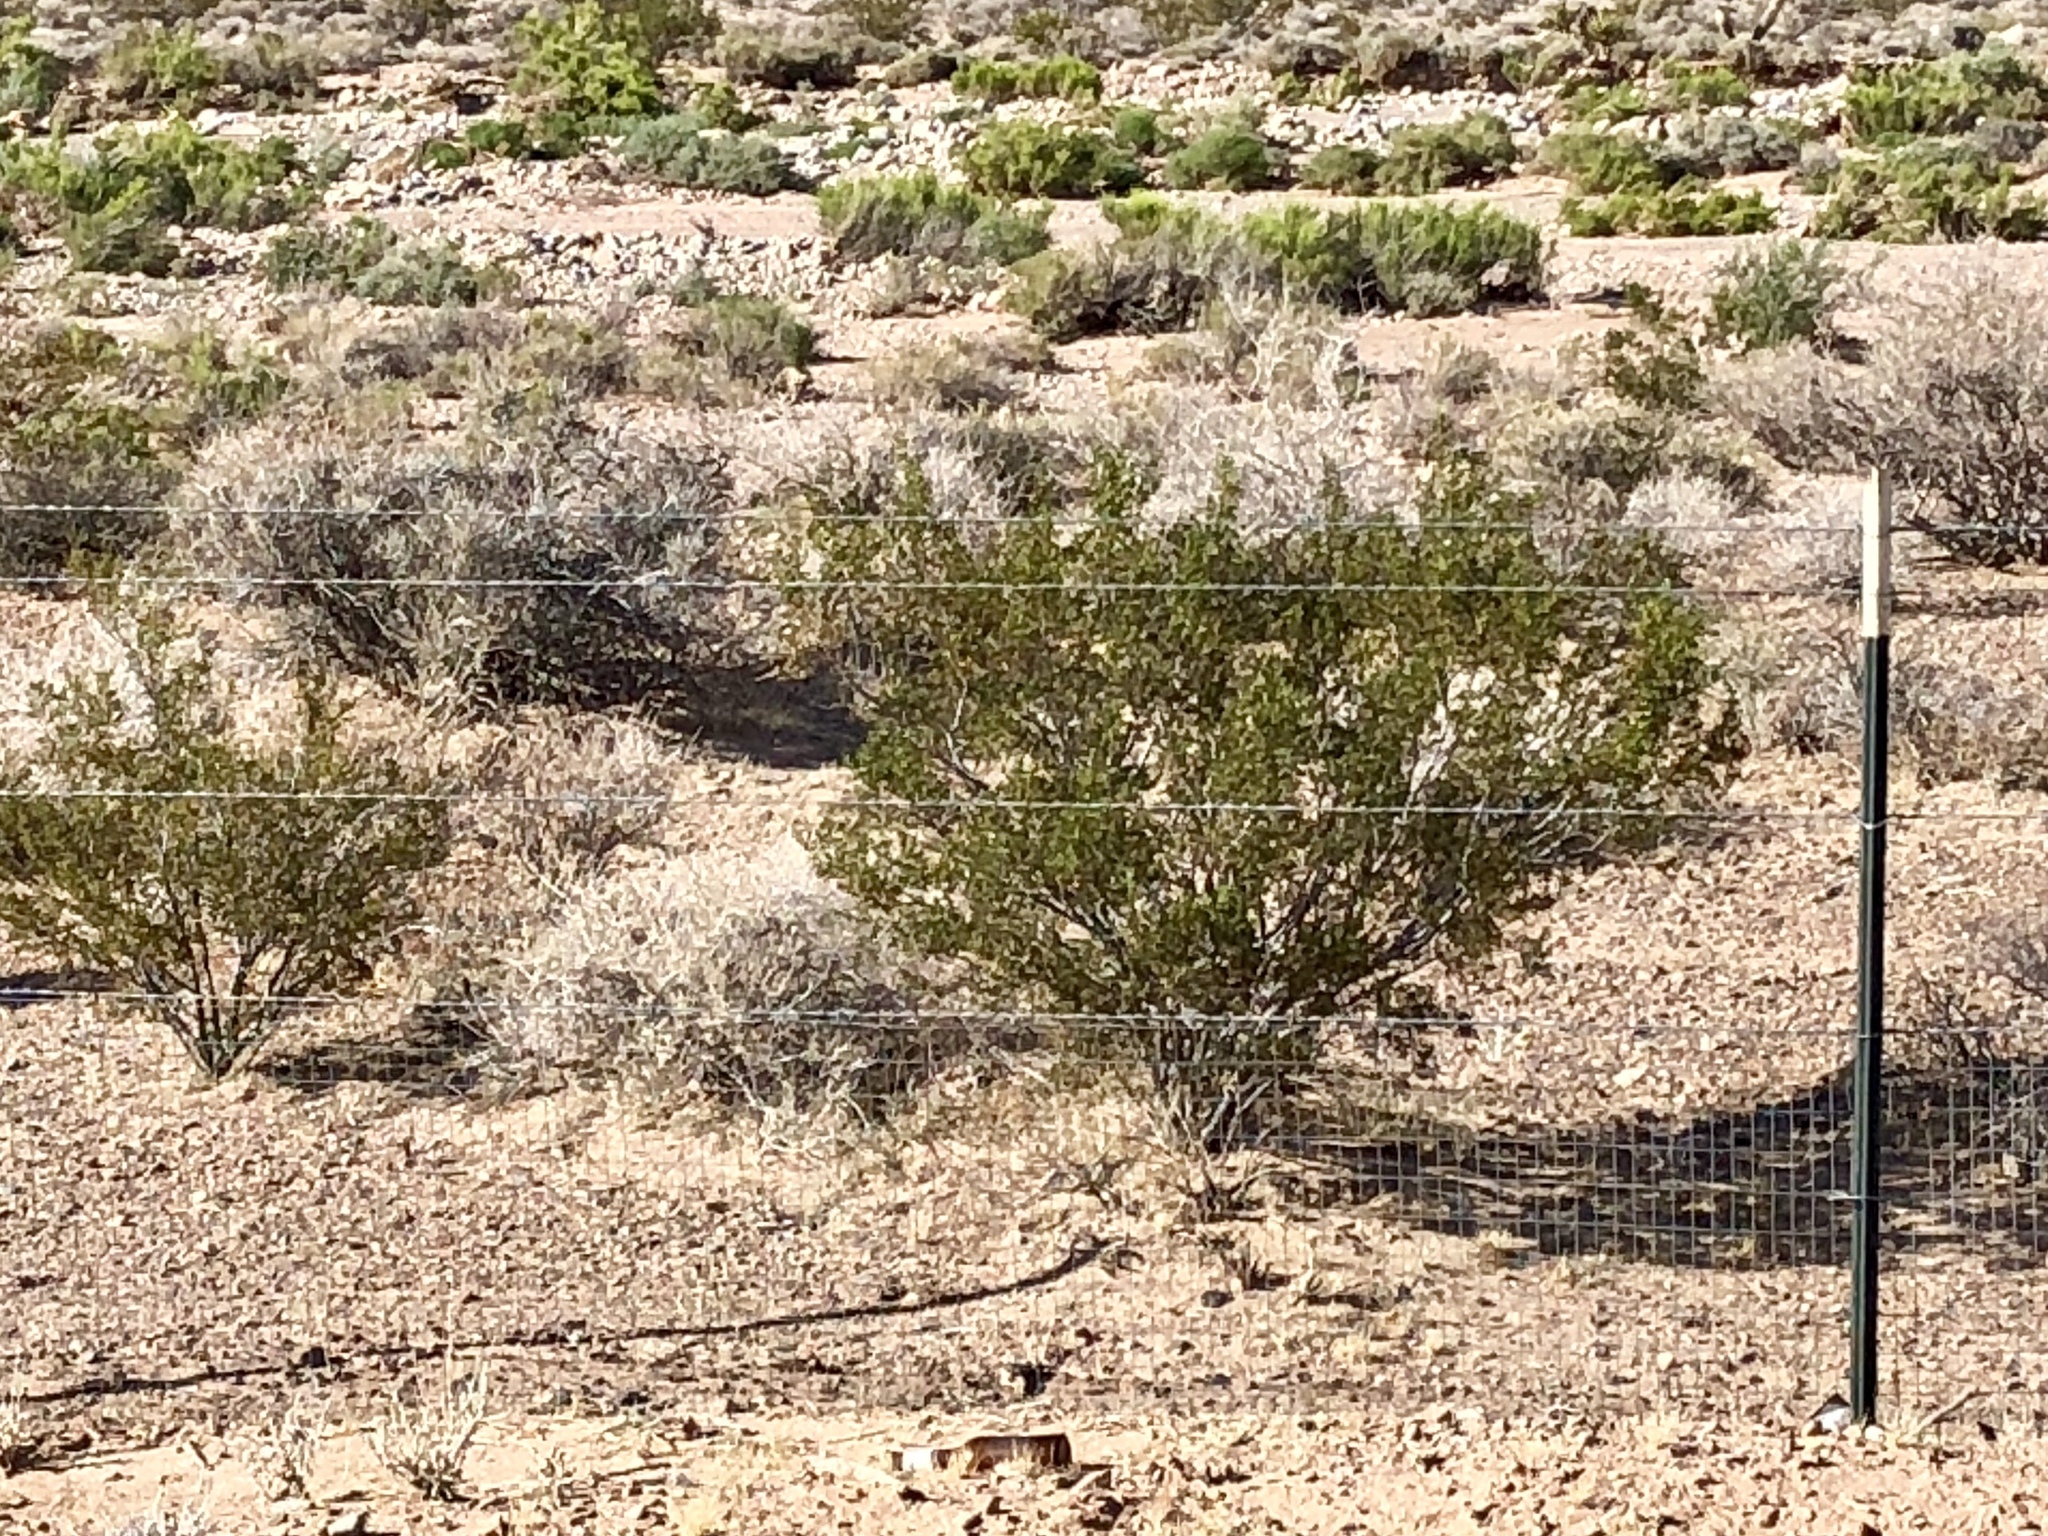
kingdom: Plantae
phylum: Tracheophyta
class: Magnoliopsida
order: Zygophyllales
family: Zygophyllaceae
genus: Larrea
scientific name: Larrea tridentata
